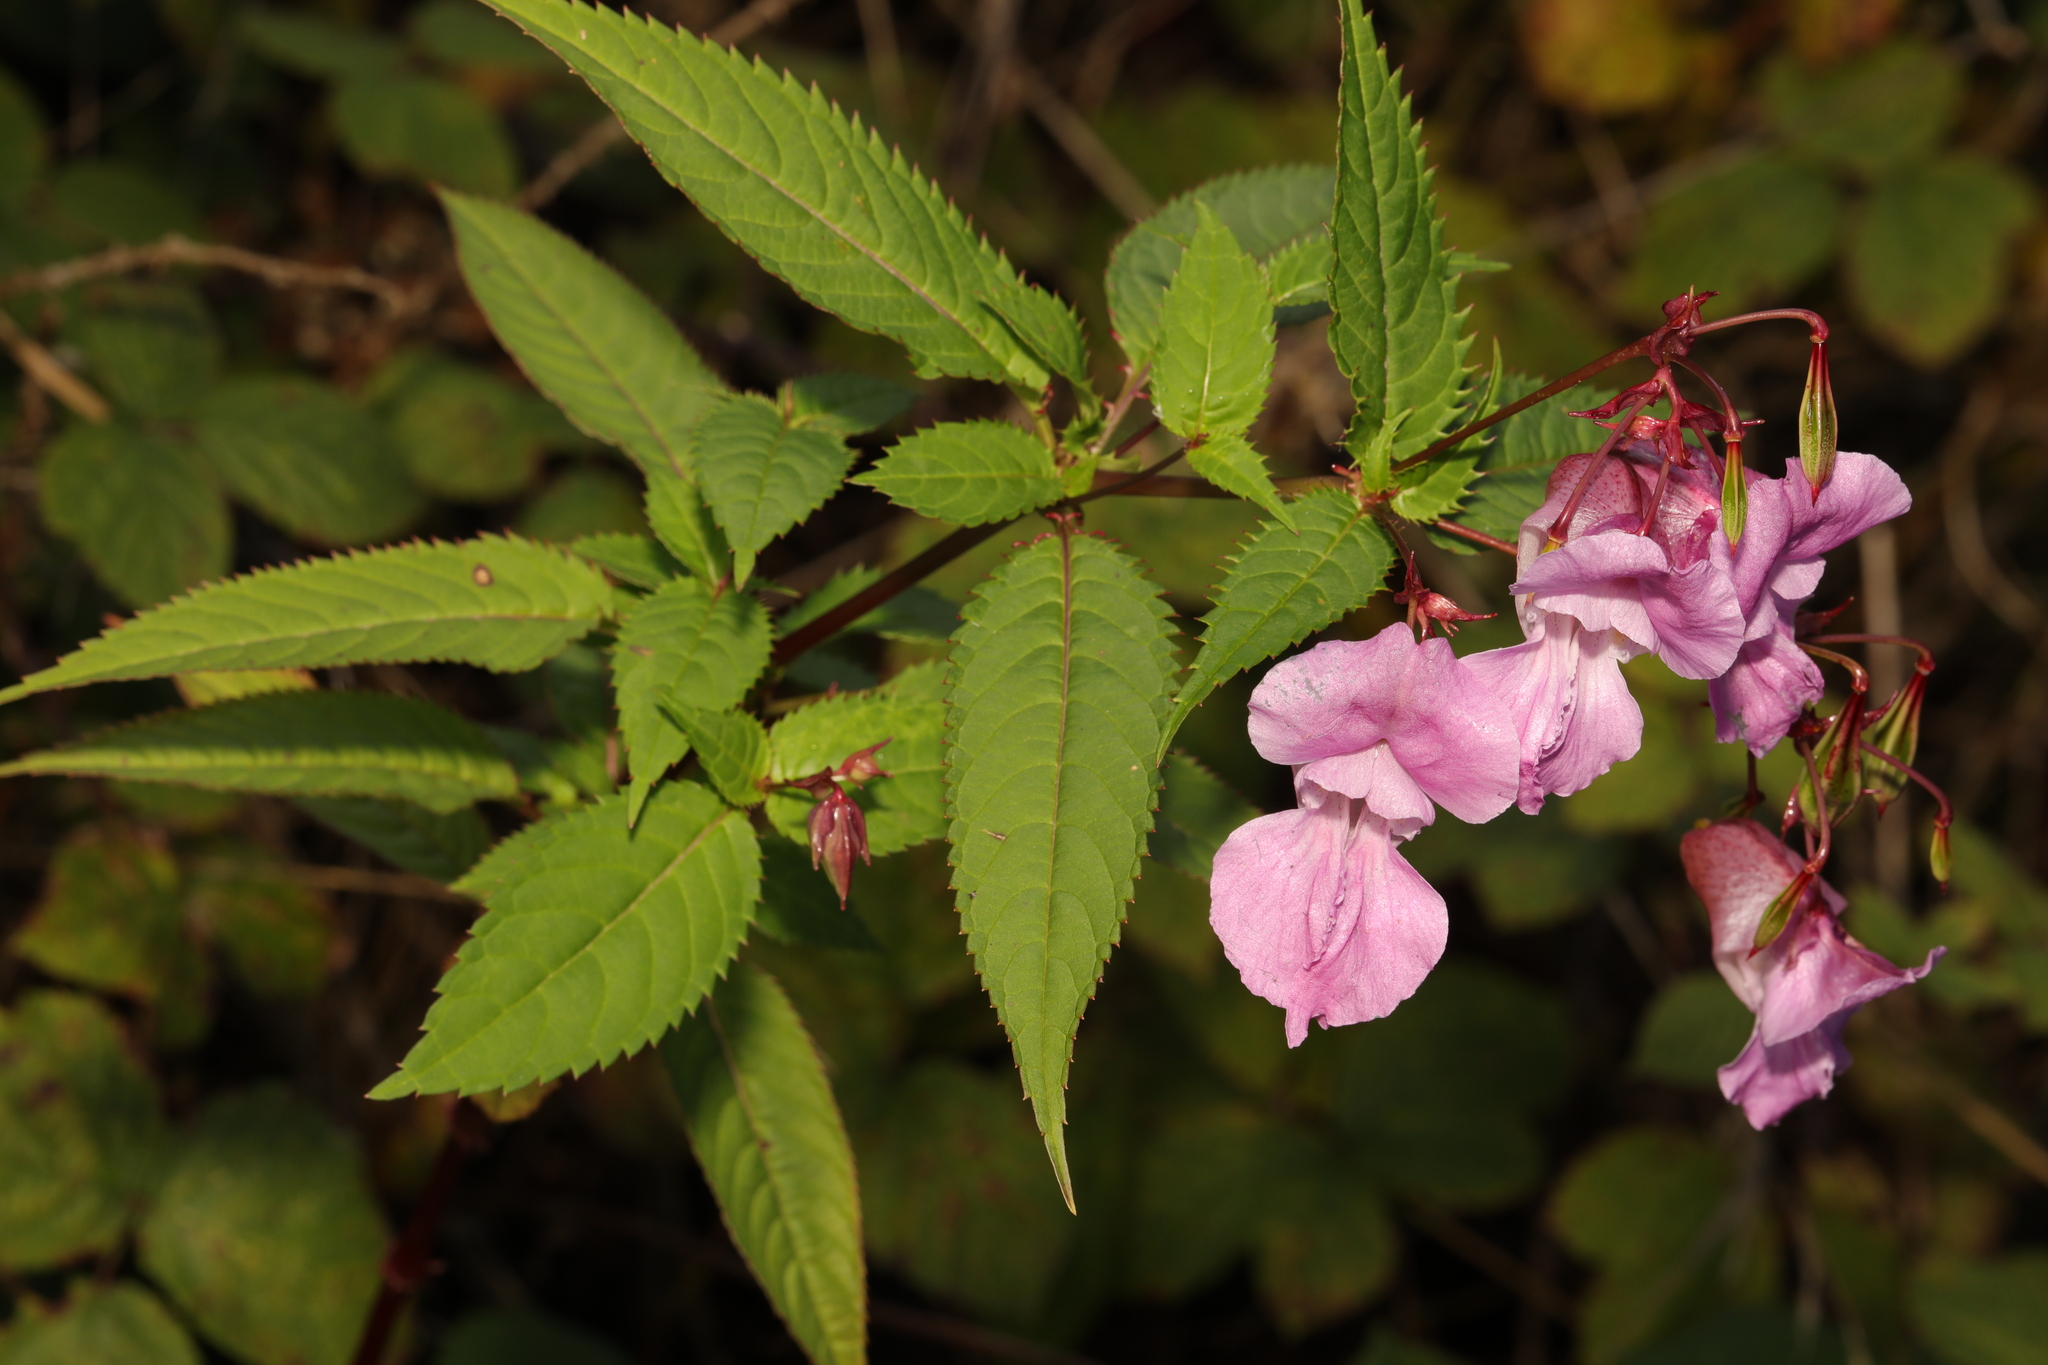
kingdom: Plantae
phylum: Tracheophyta
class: Magnoliopsida
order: Ericales
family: Balsaminaceae
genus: Impatiens
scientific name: Impatiens glandulifera
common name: Himalayan balsam
